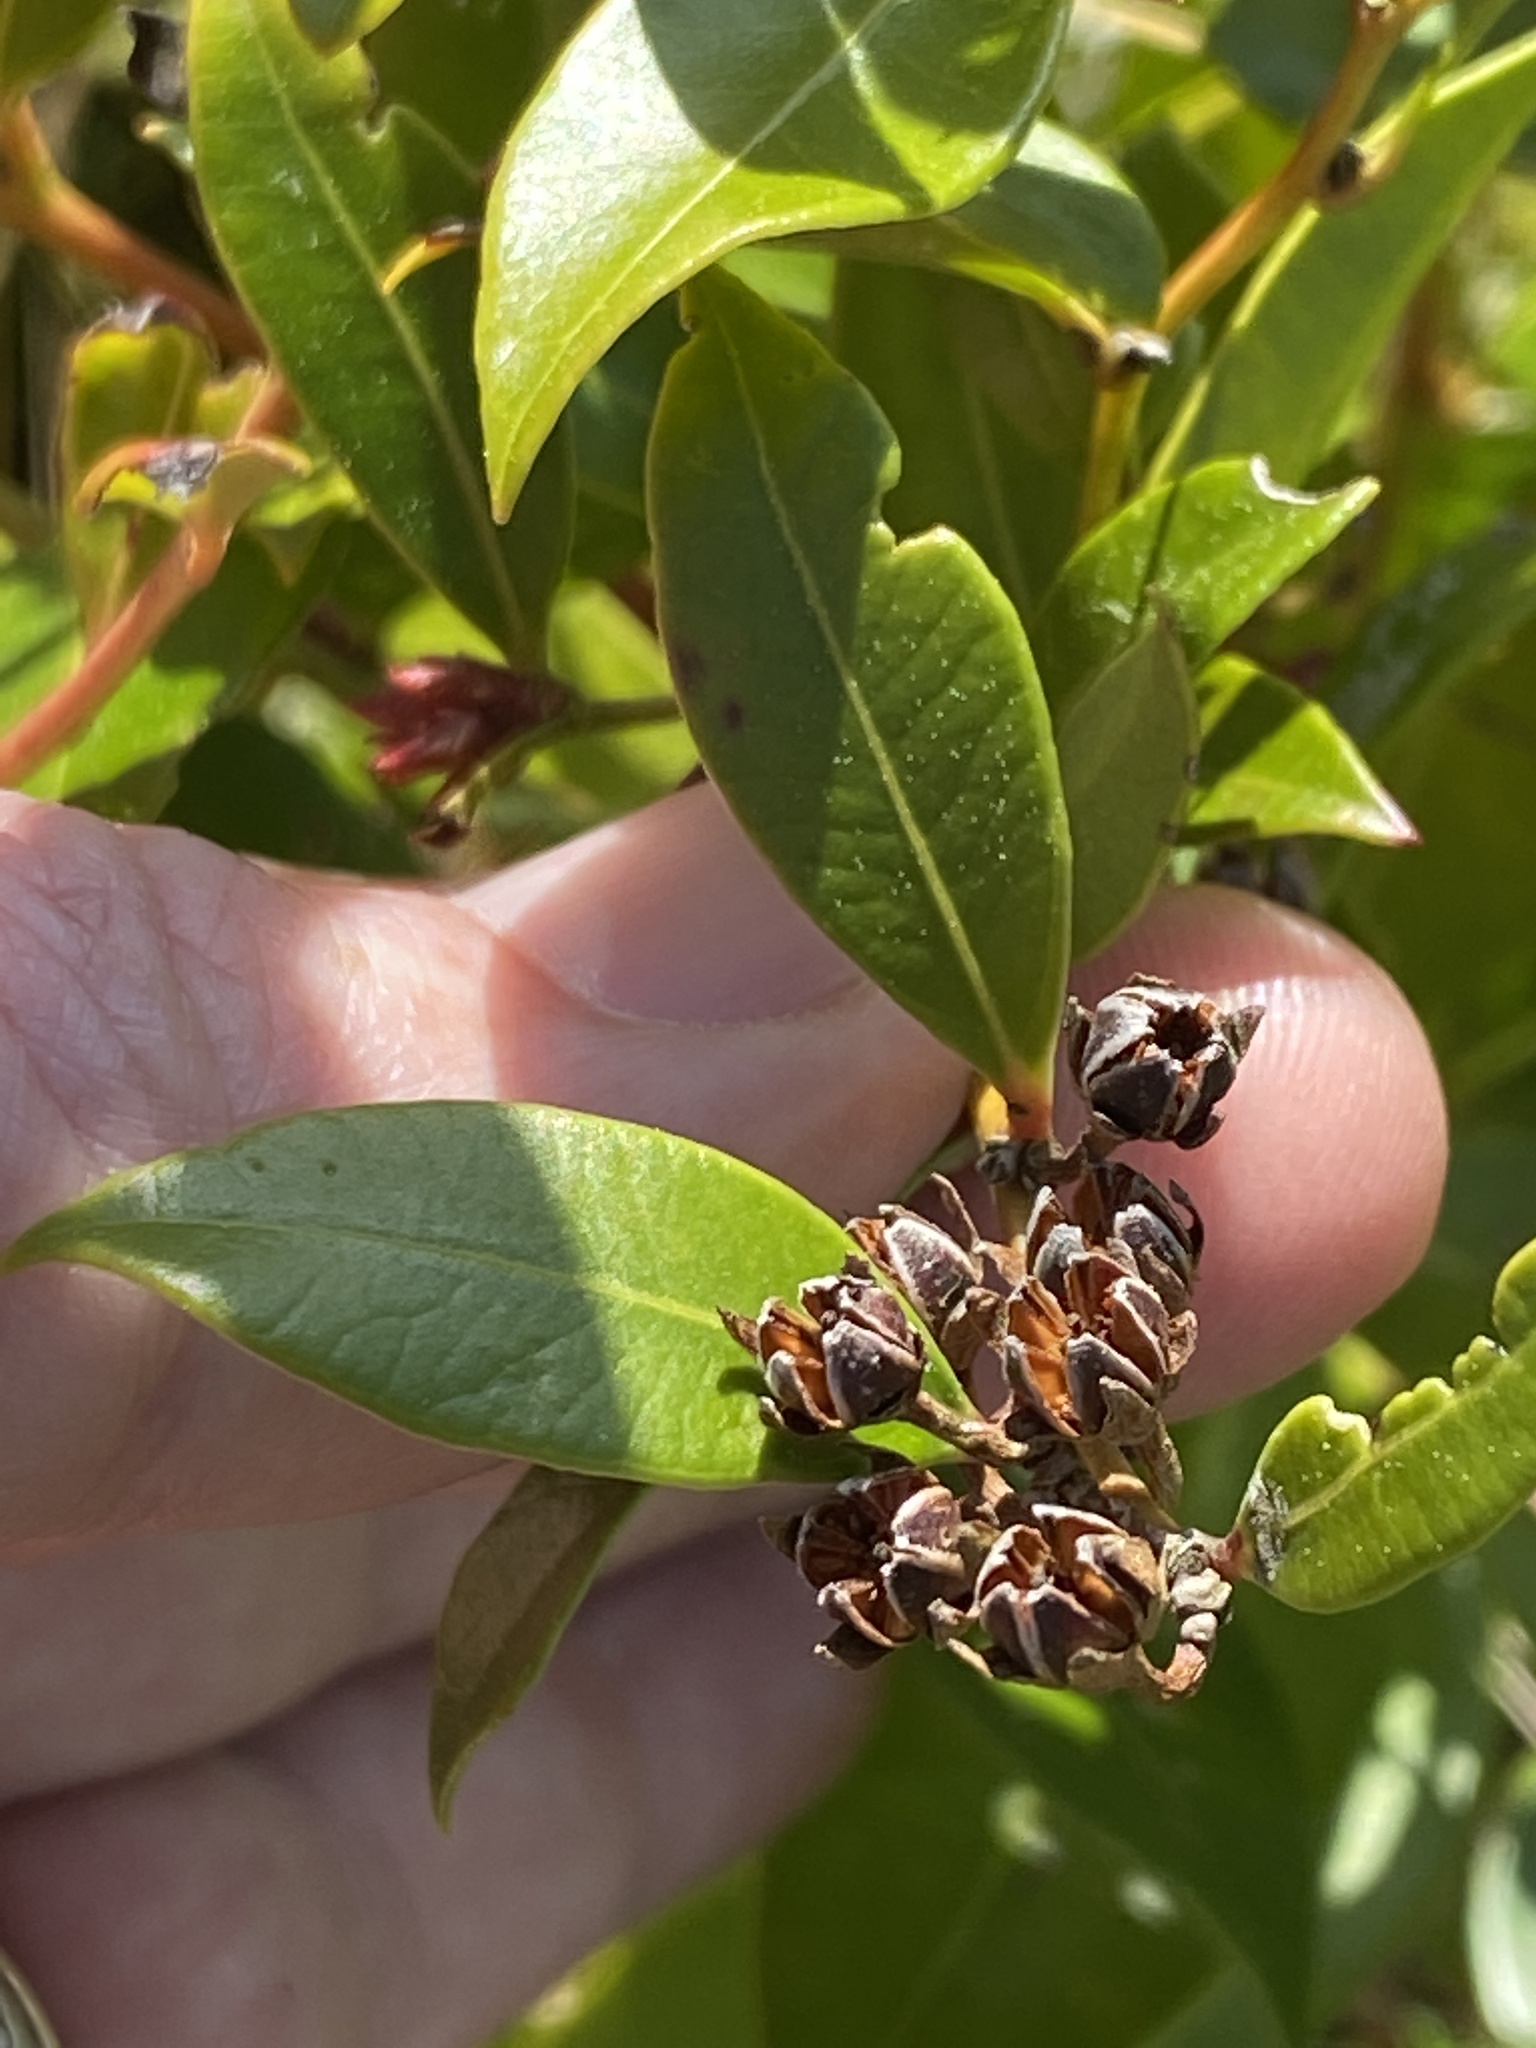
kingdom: Plantae
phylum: Tracheophyta
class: Magnoliopsida
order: Ericales
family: Ericaceae
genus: Lyonia
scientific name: Lyonia lucida
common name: Fetterbush
